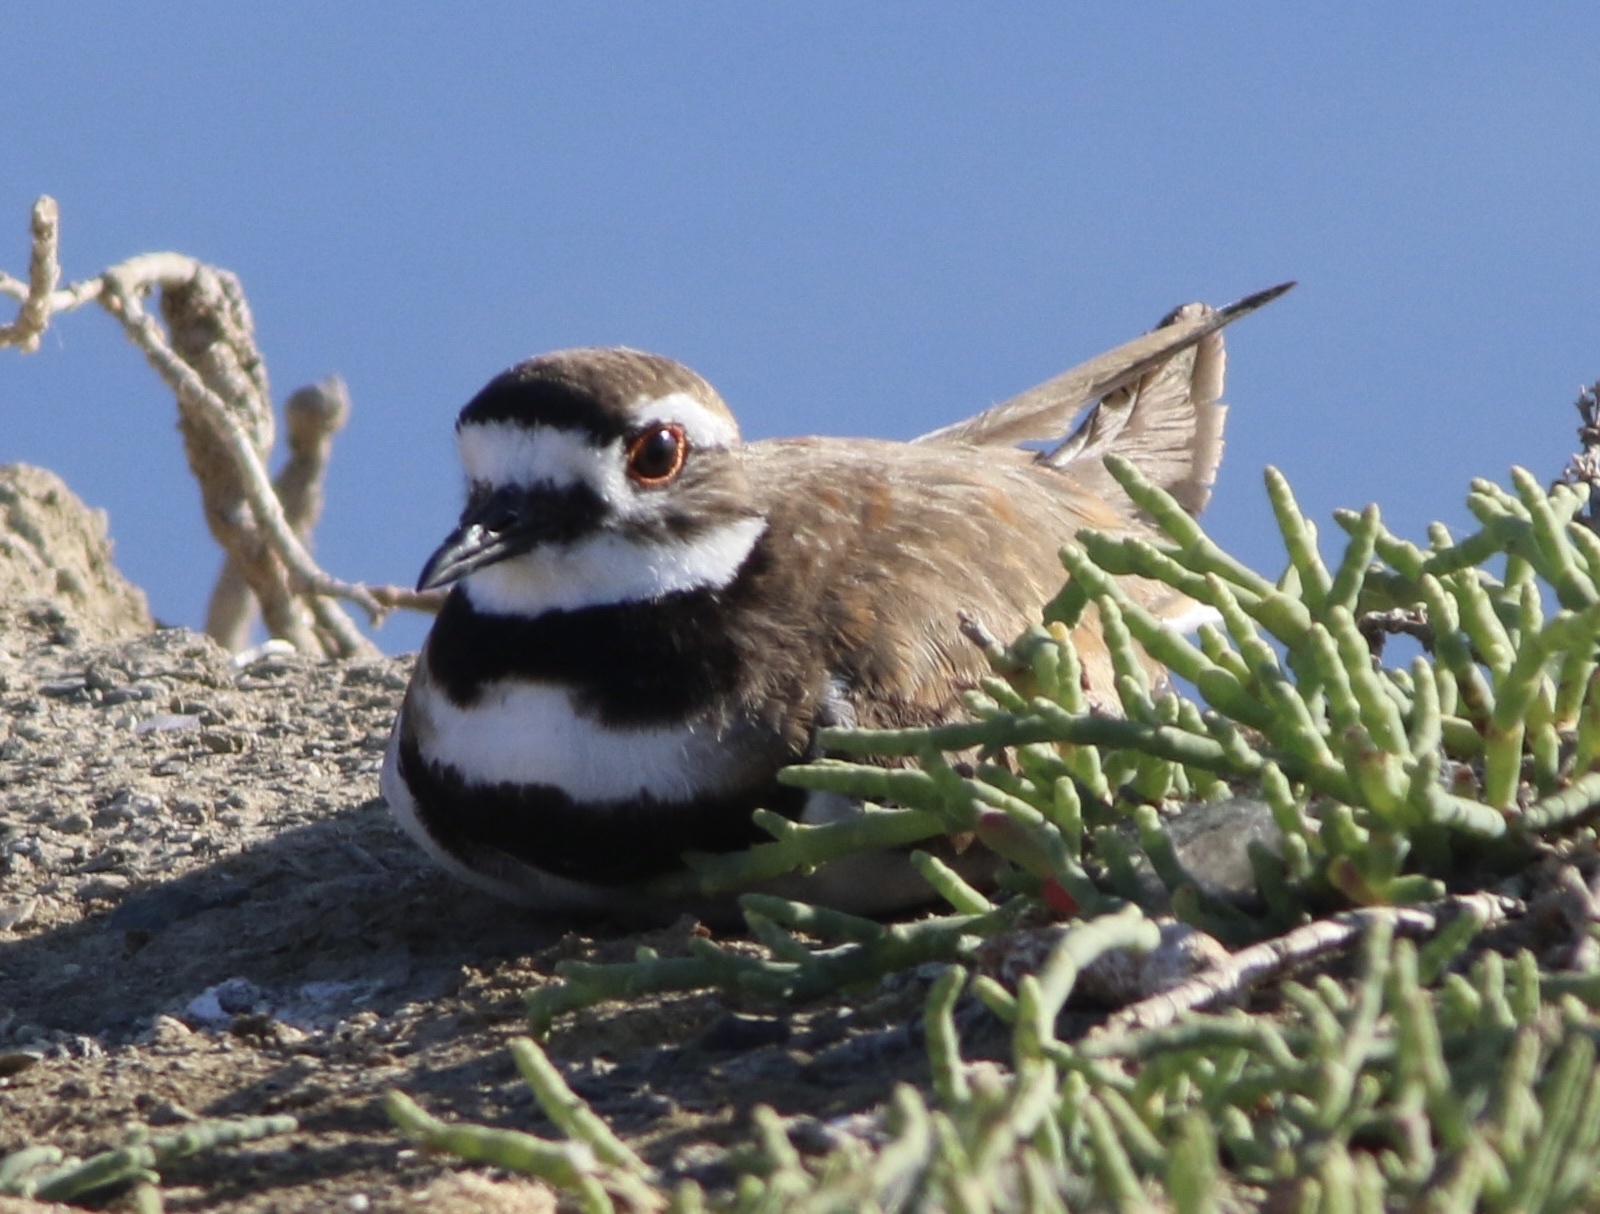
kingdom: Animalia
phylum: Chordata
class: Aves
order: Charadriiformes
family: Charadriidae
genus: Charadrius
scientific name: Charadrius vociferus
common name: Killdeer
